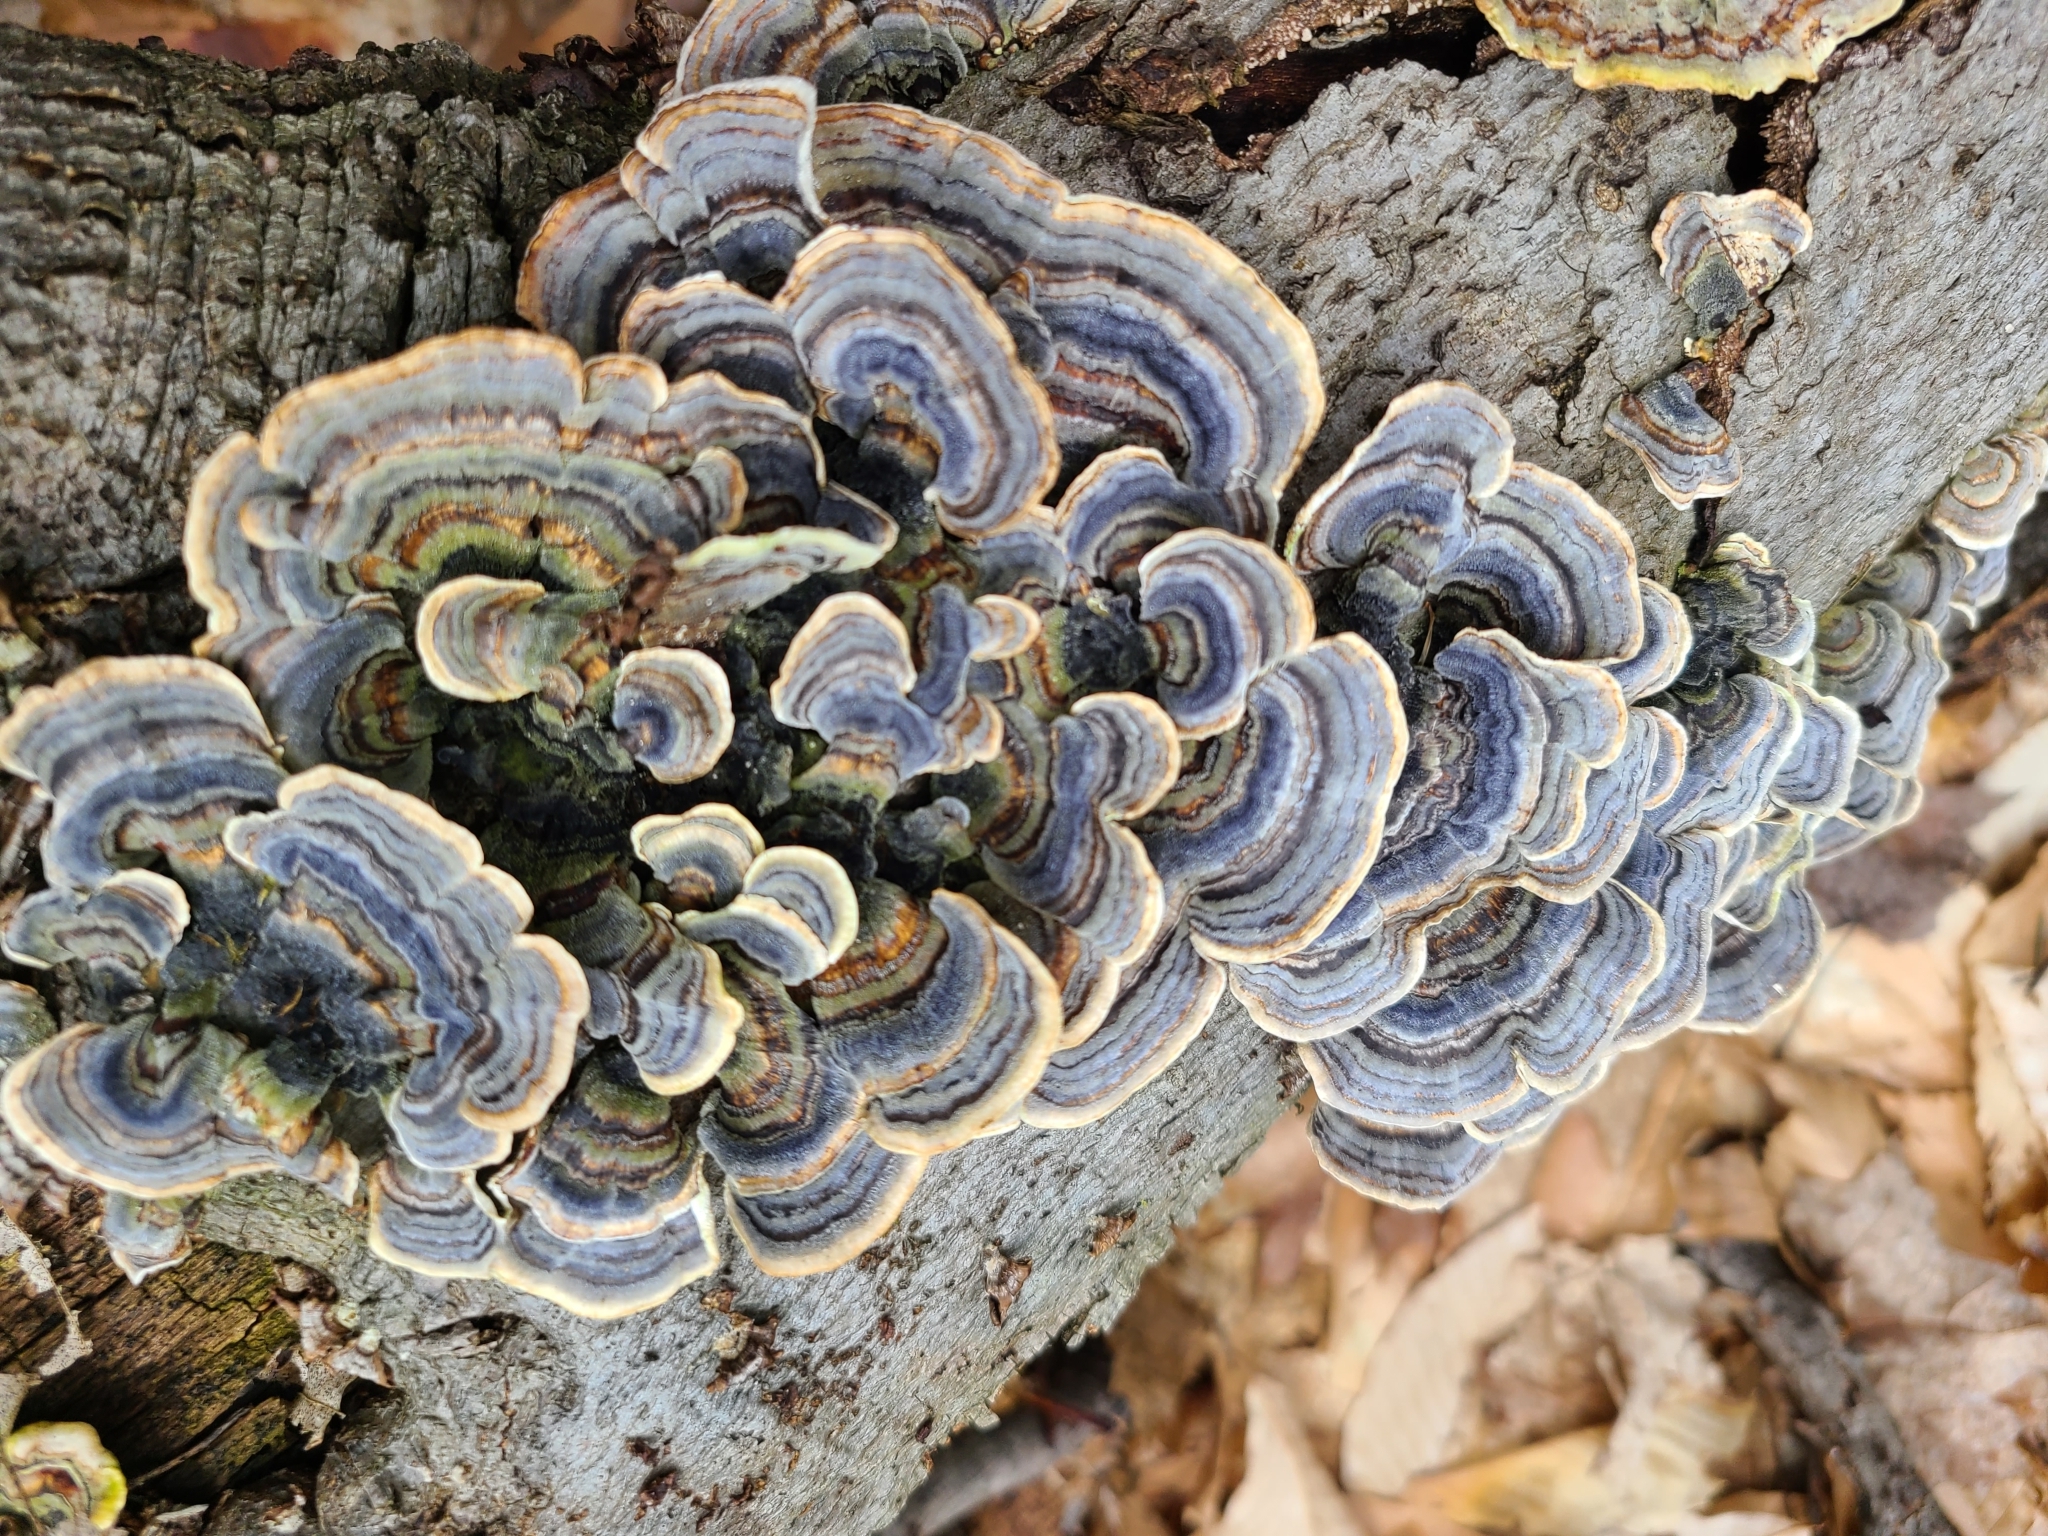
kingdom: Fungi
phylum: Basidiomycota
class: Agaricomycetes
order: Polyporales
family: Polyporaceae
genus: Trametes
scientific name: Trametes versicolor
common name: Turkeytail
